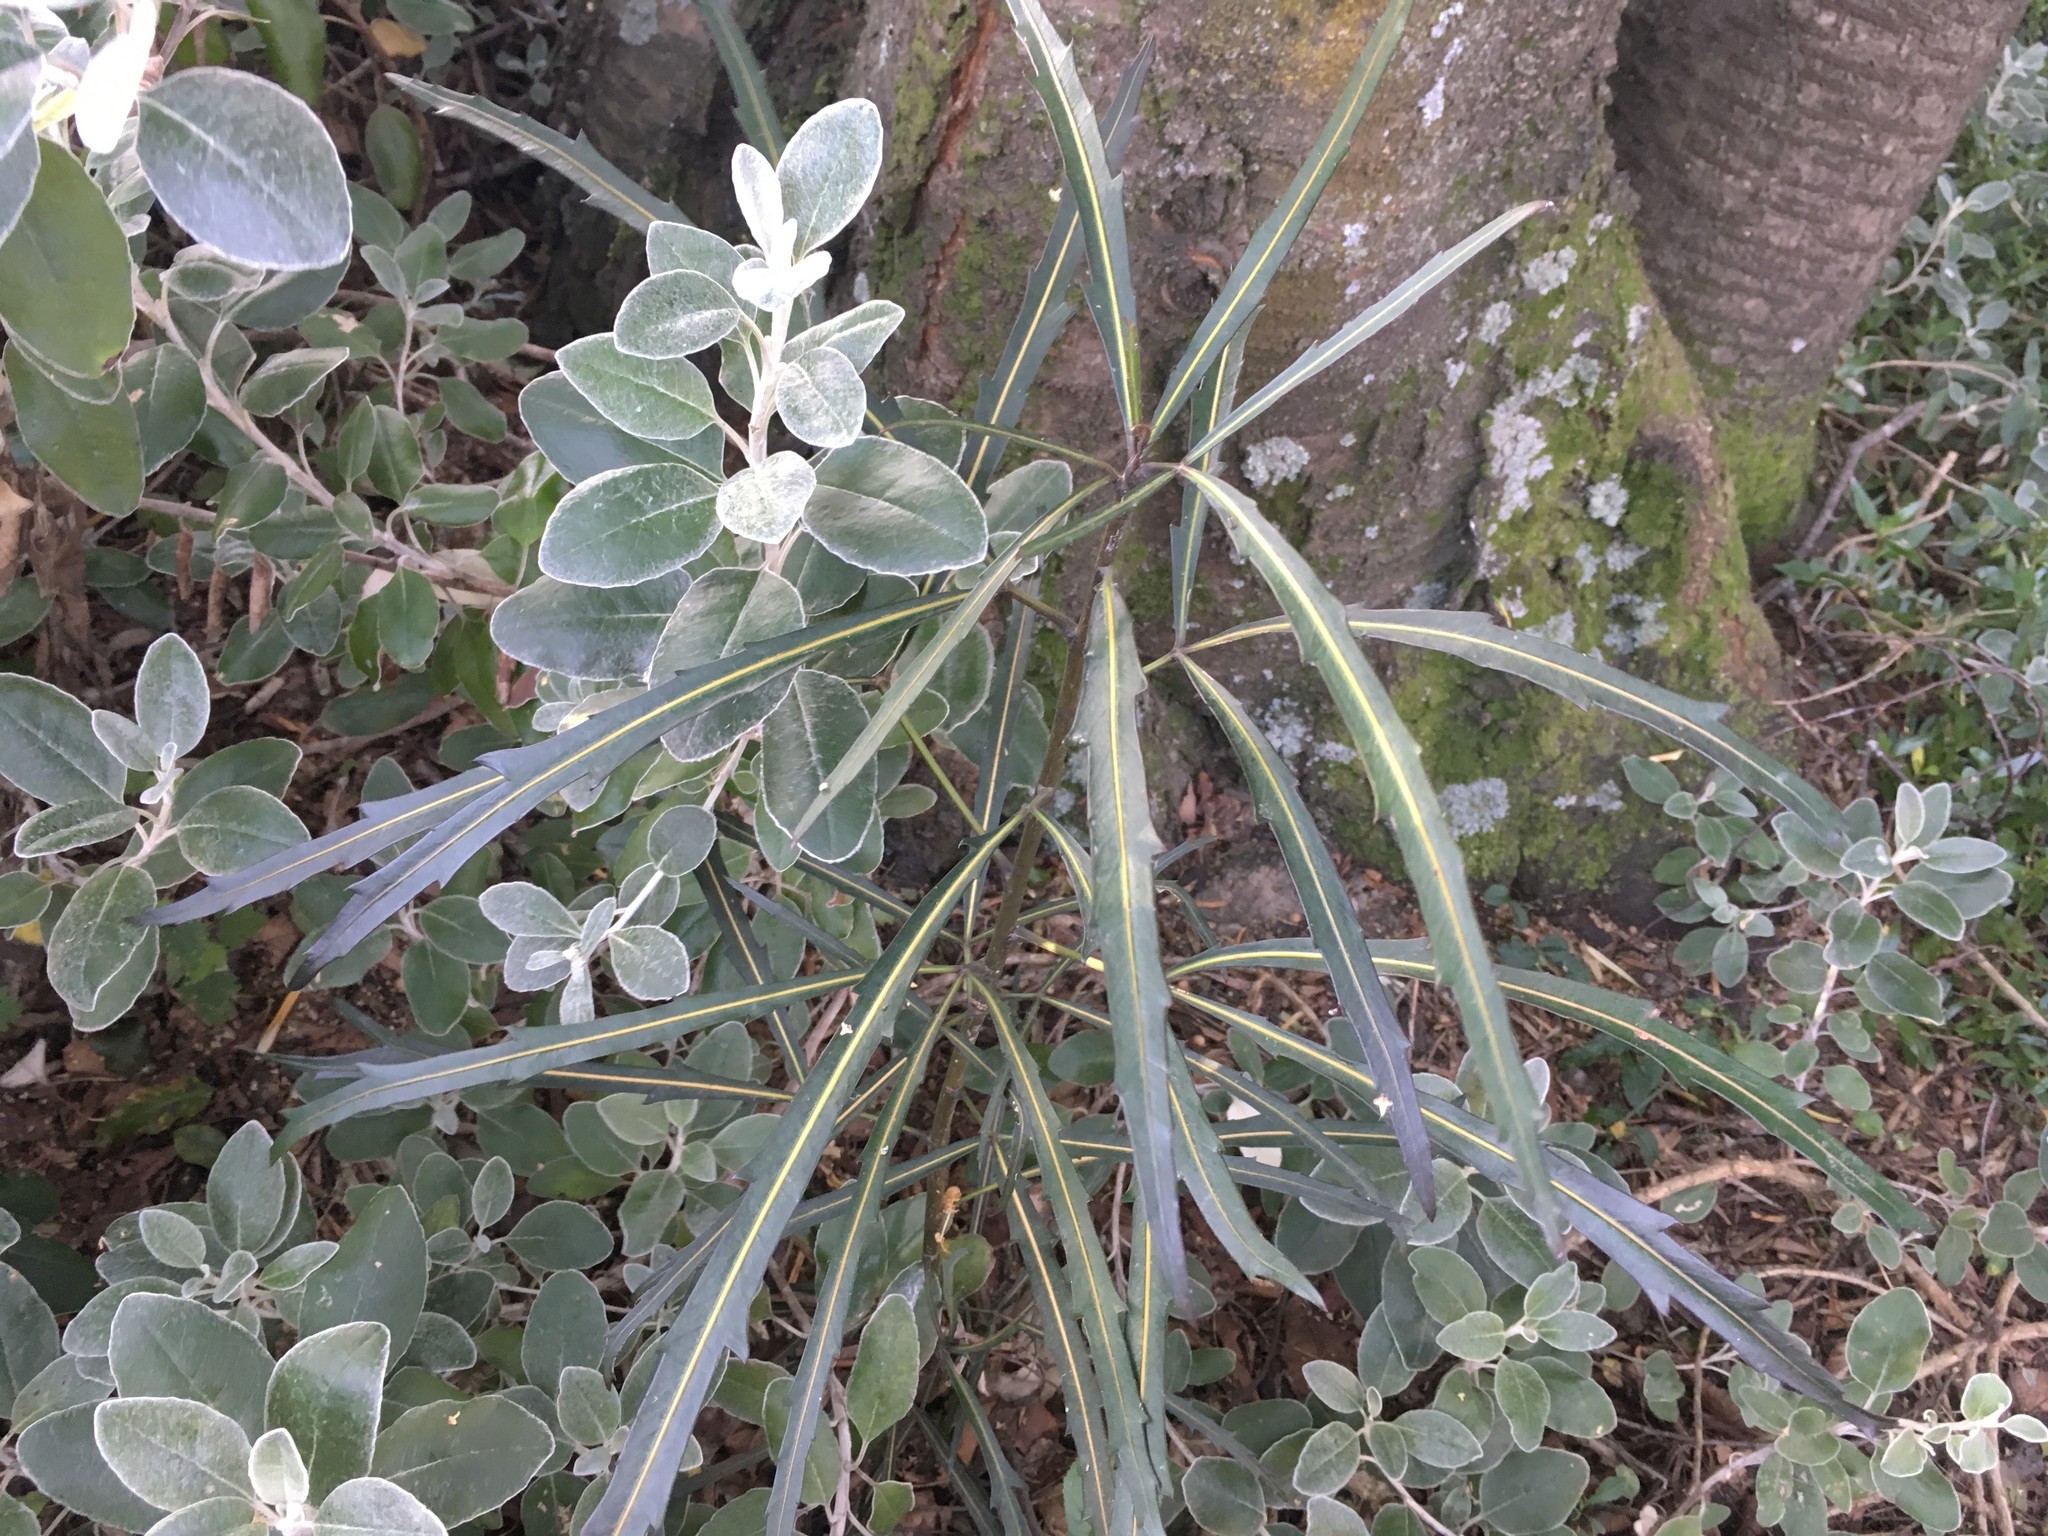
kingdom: Plantae
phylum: Tracheophyta
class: Magnoliopsida
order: Apiales
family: Araliaceae
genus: Pseudopanax
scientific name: Pseudopanax
